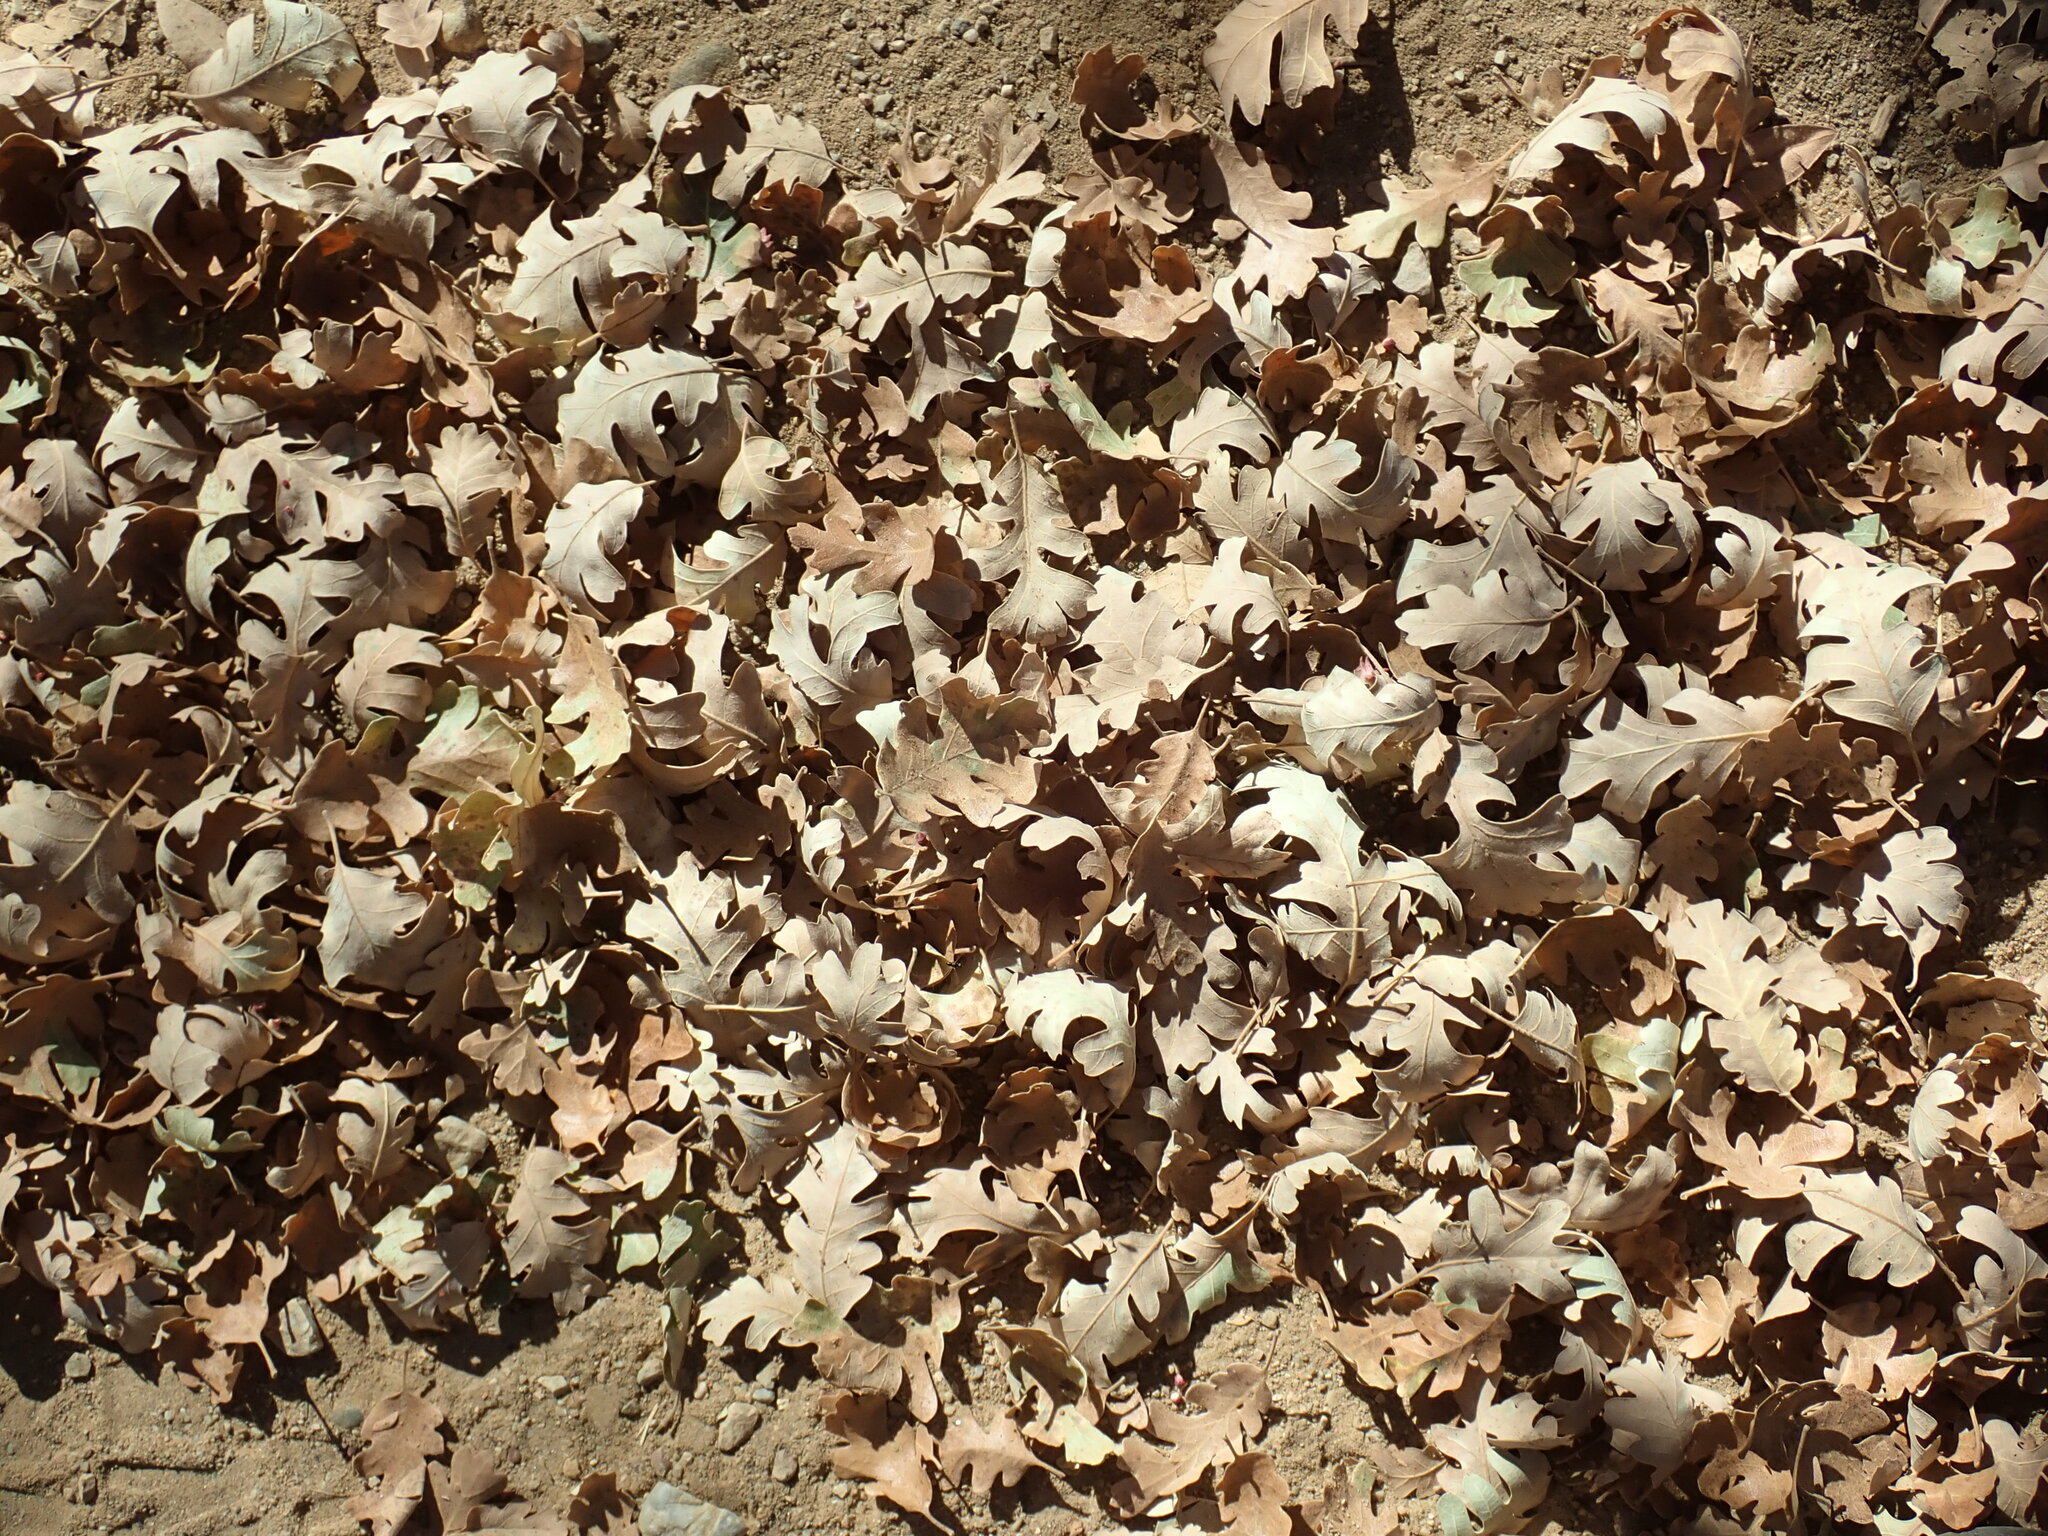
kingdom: Plantae
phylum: Tracheophyta
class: Magnoliopsida
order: Fagales
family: Fagaceae
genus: Quercus
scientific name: Quercus lobata
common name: Valley oak
